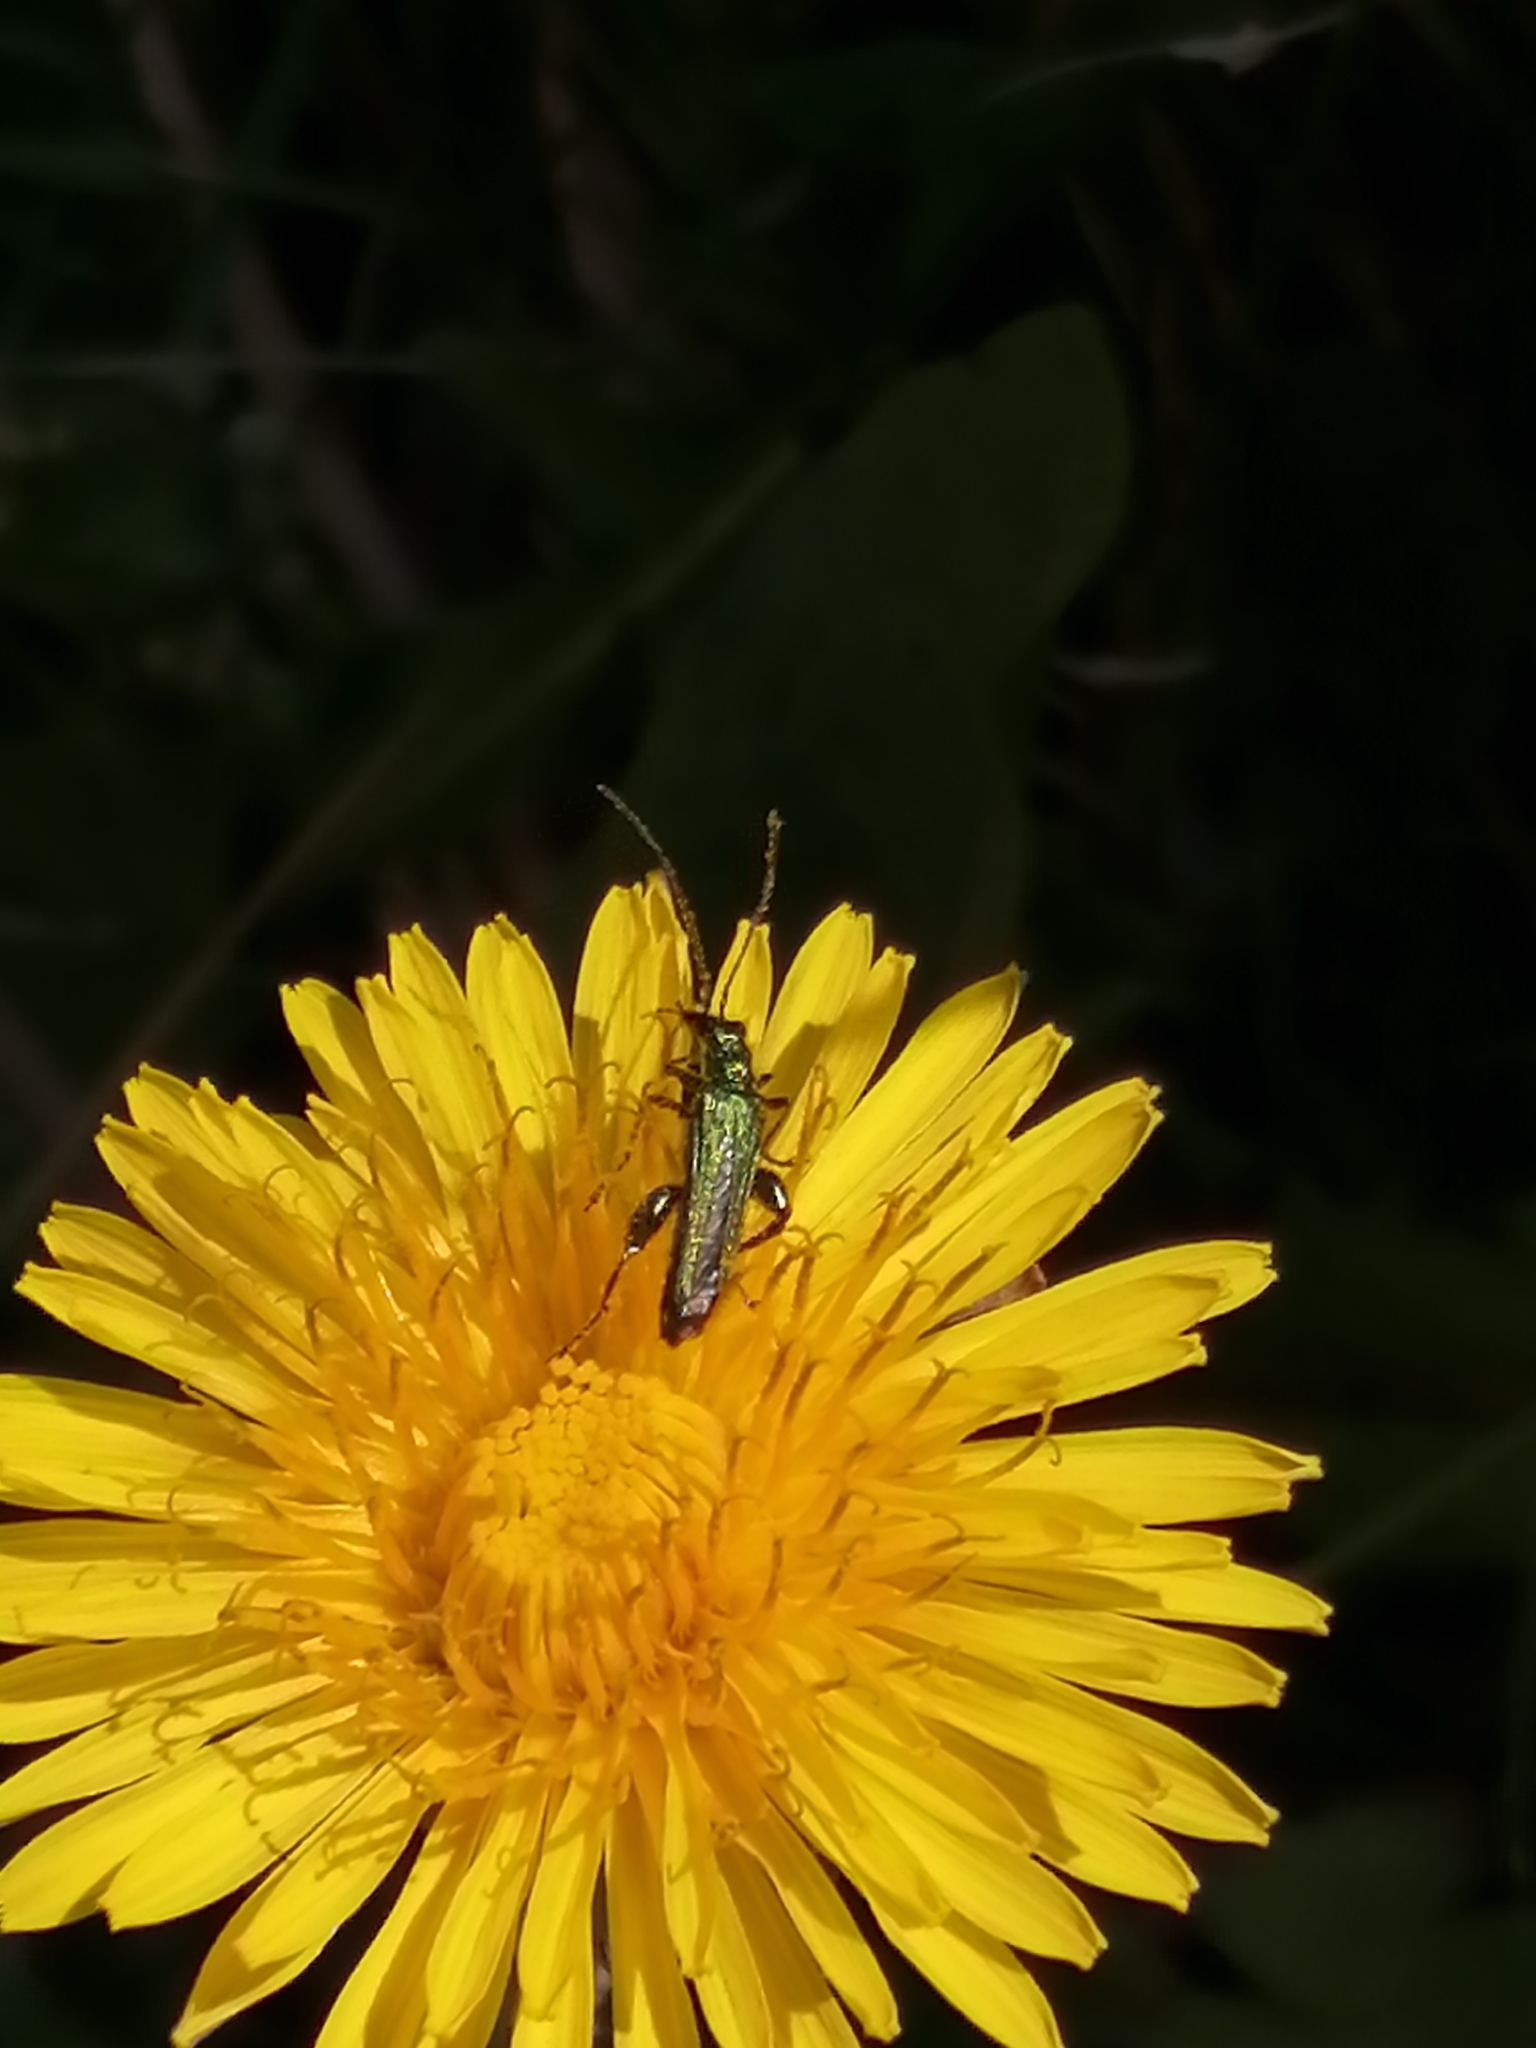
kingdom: Animalia
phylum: Arthropoda
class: Insecta
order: Coleoptera
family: Oedemeridae
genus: Oedemera
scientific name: Oedemera nobilis
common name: Swollen-thighed beetle
